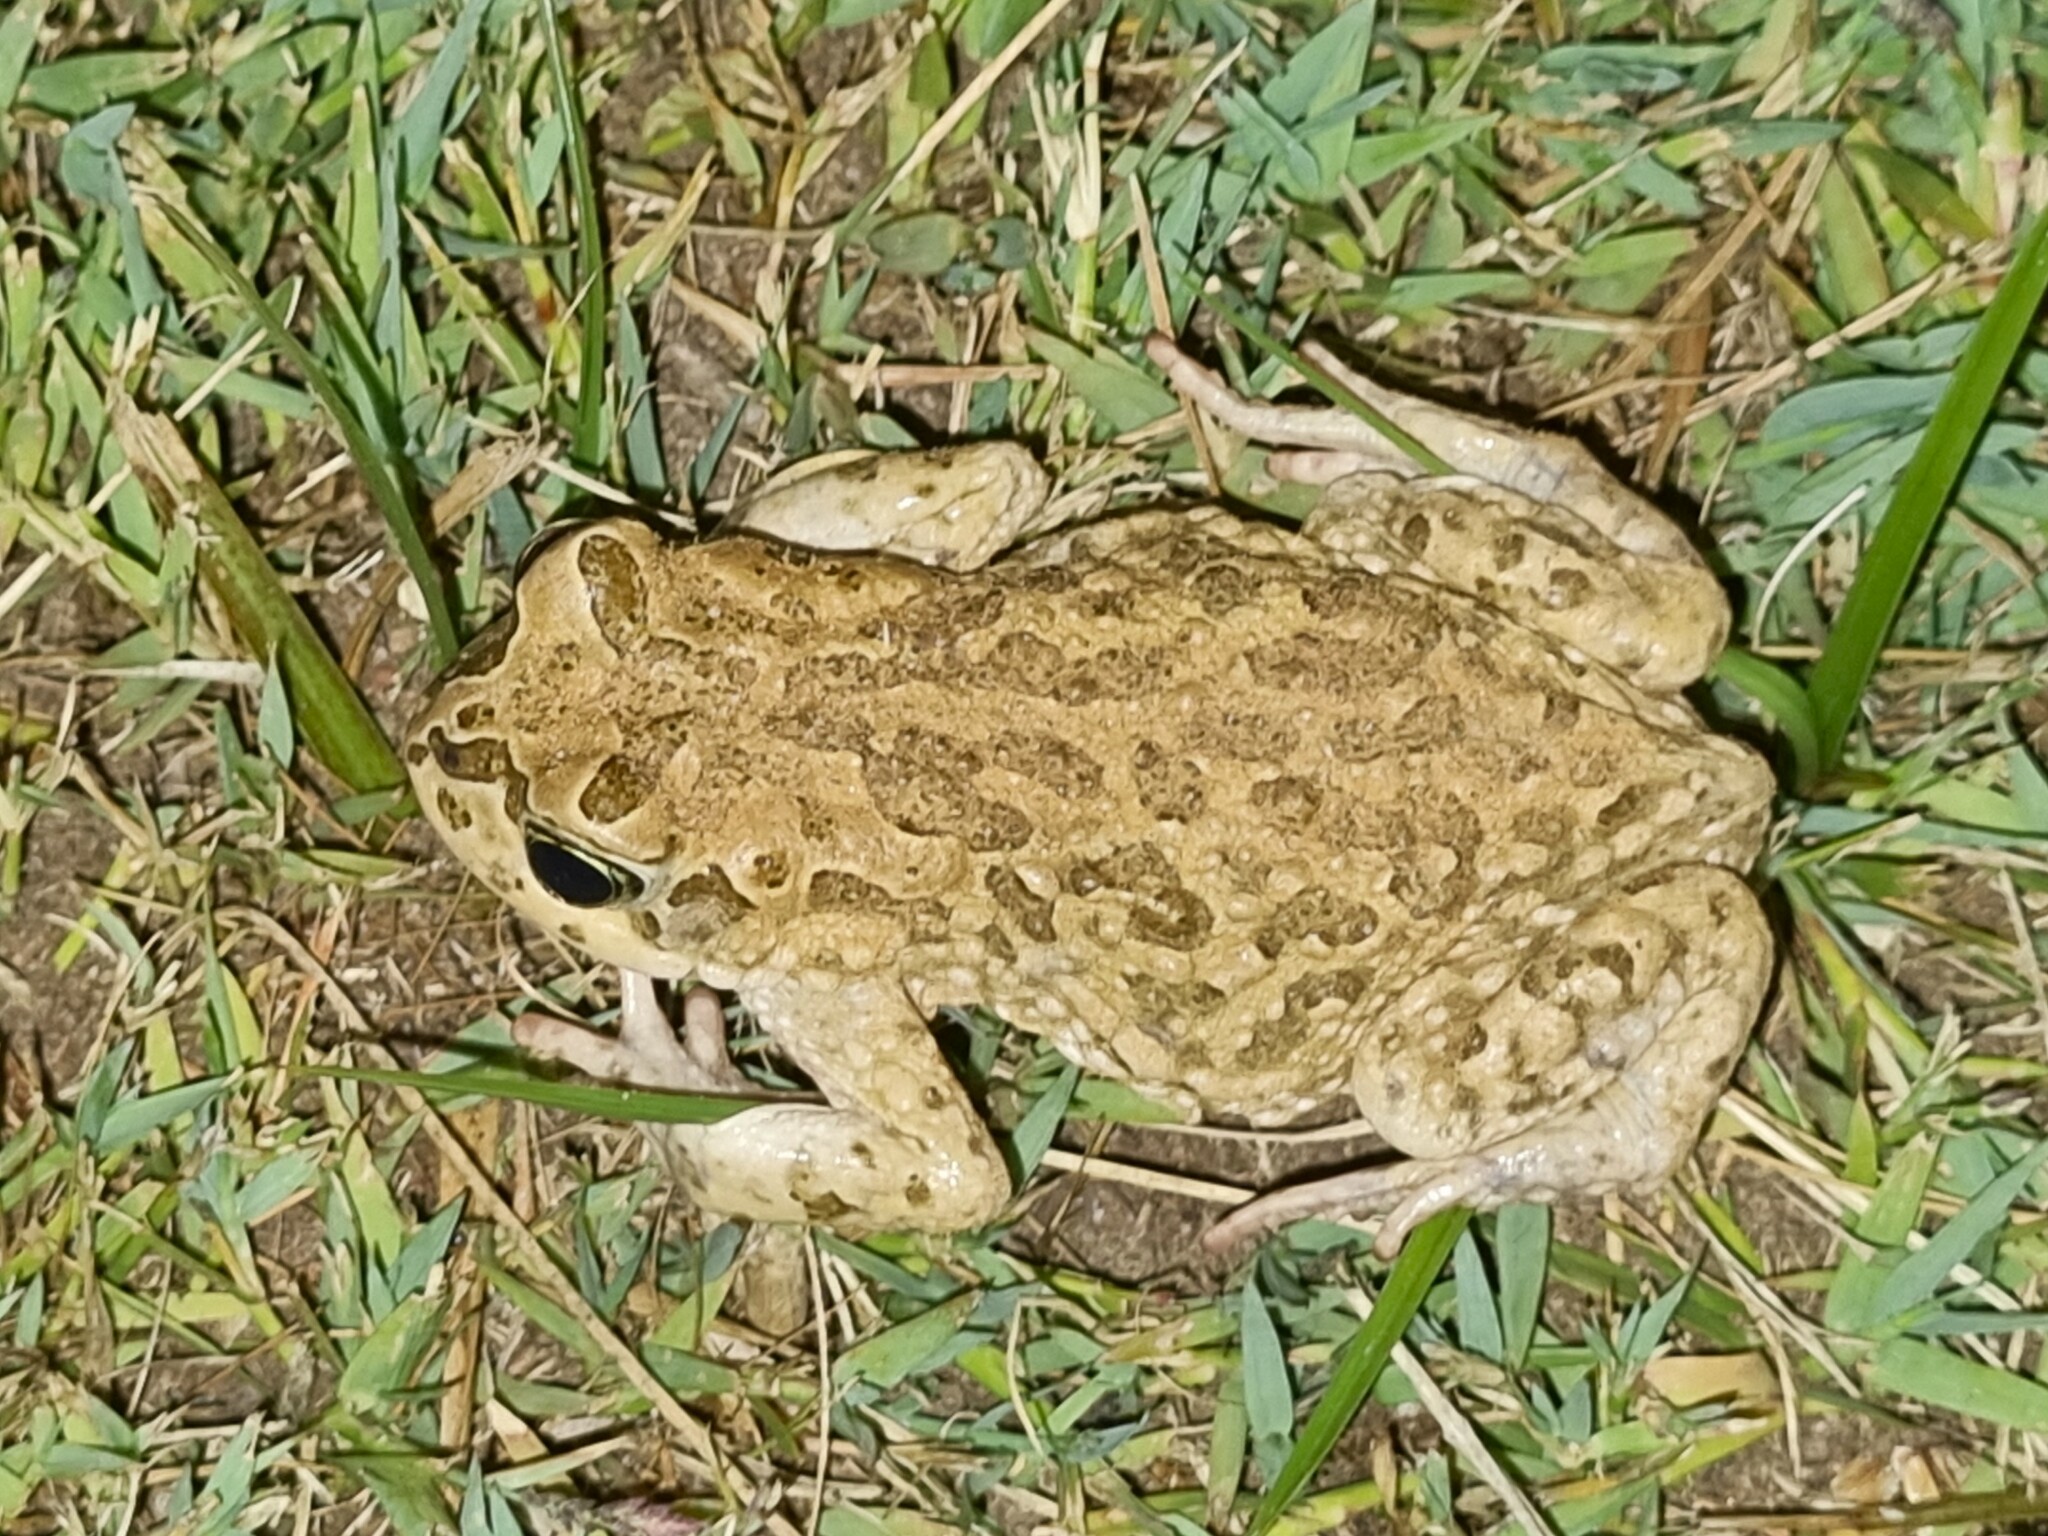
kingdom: Animalia
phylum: Chordata
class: Amphibia
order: Anura
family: Bufonidae
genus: Vandijkophrynus
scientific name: Vandijkophrynus gariepensis
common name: Gariep toad
